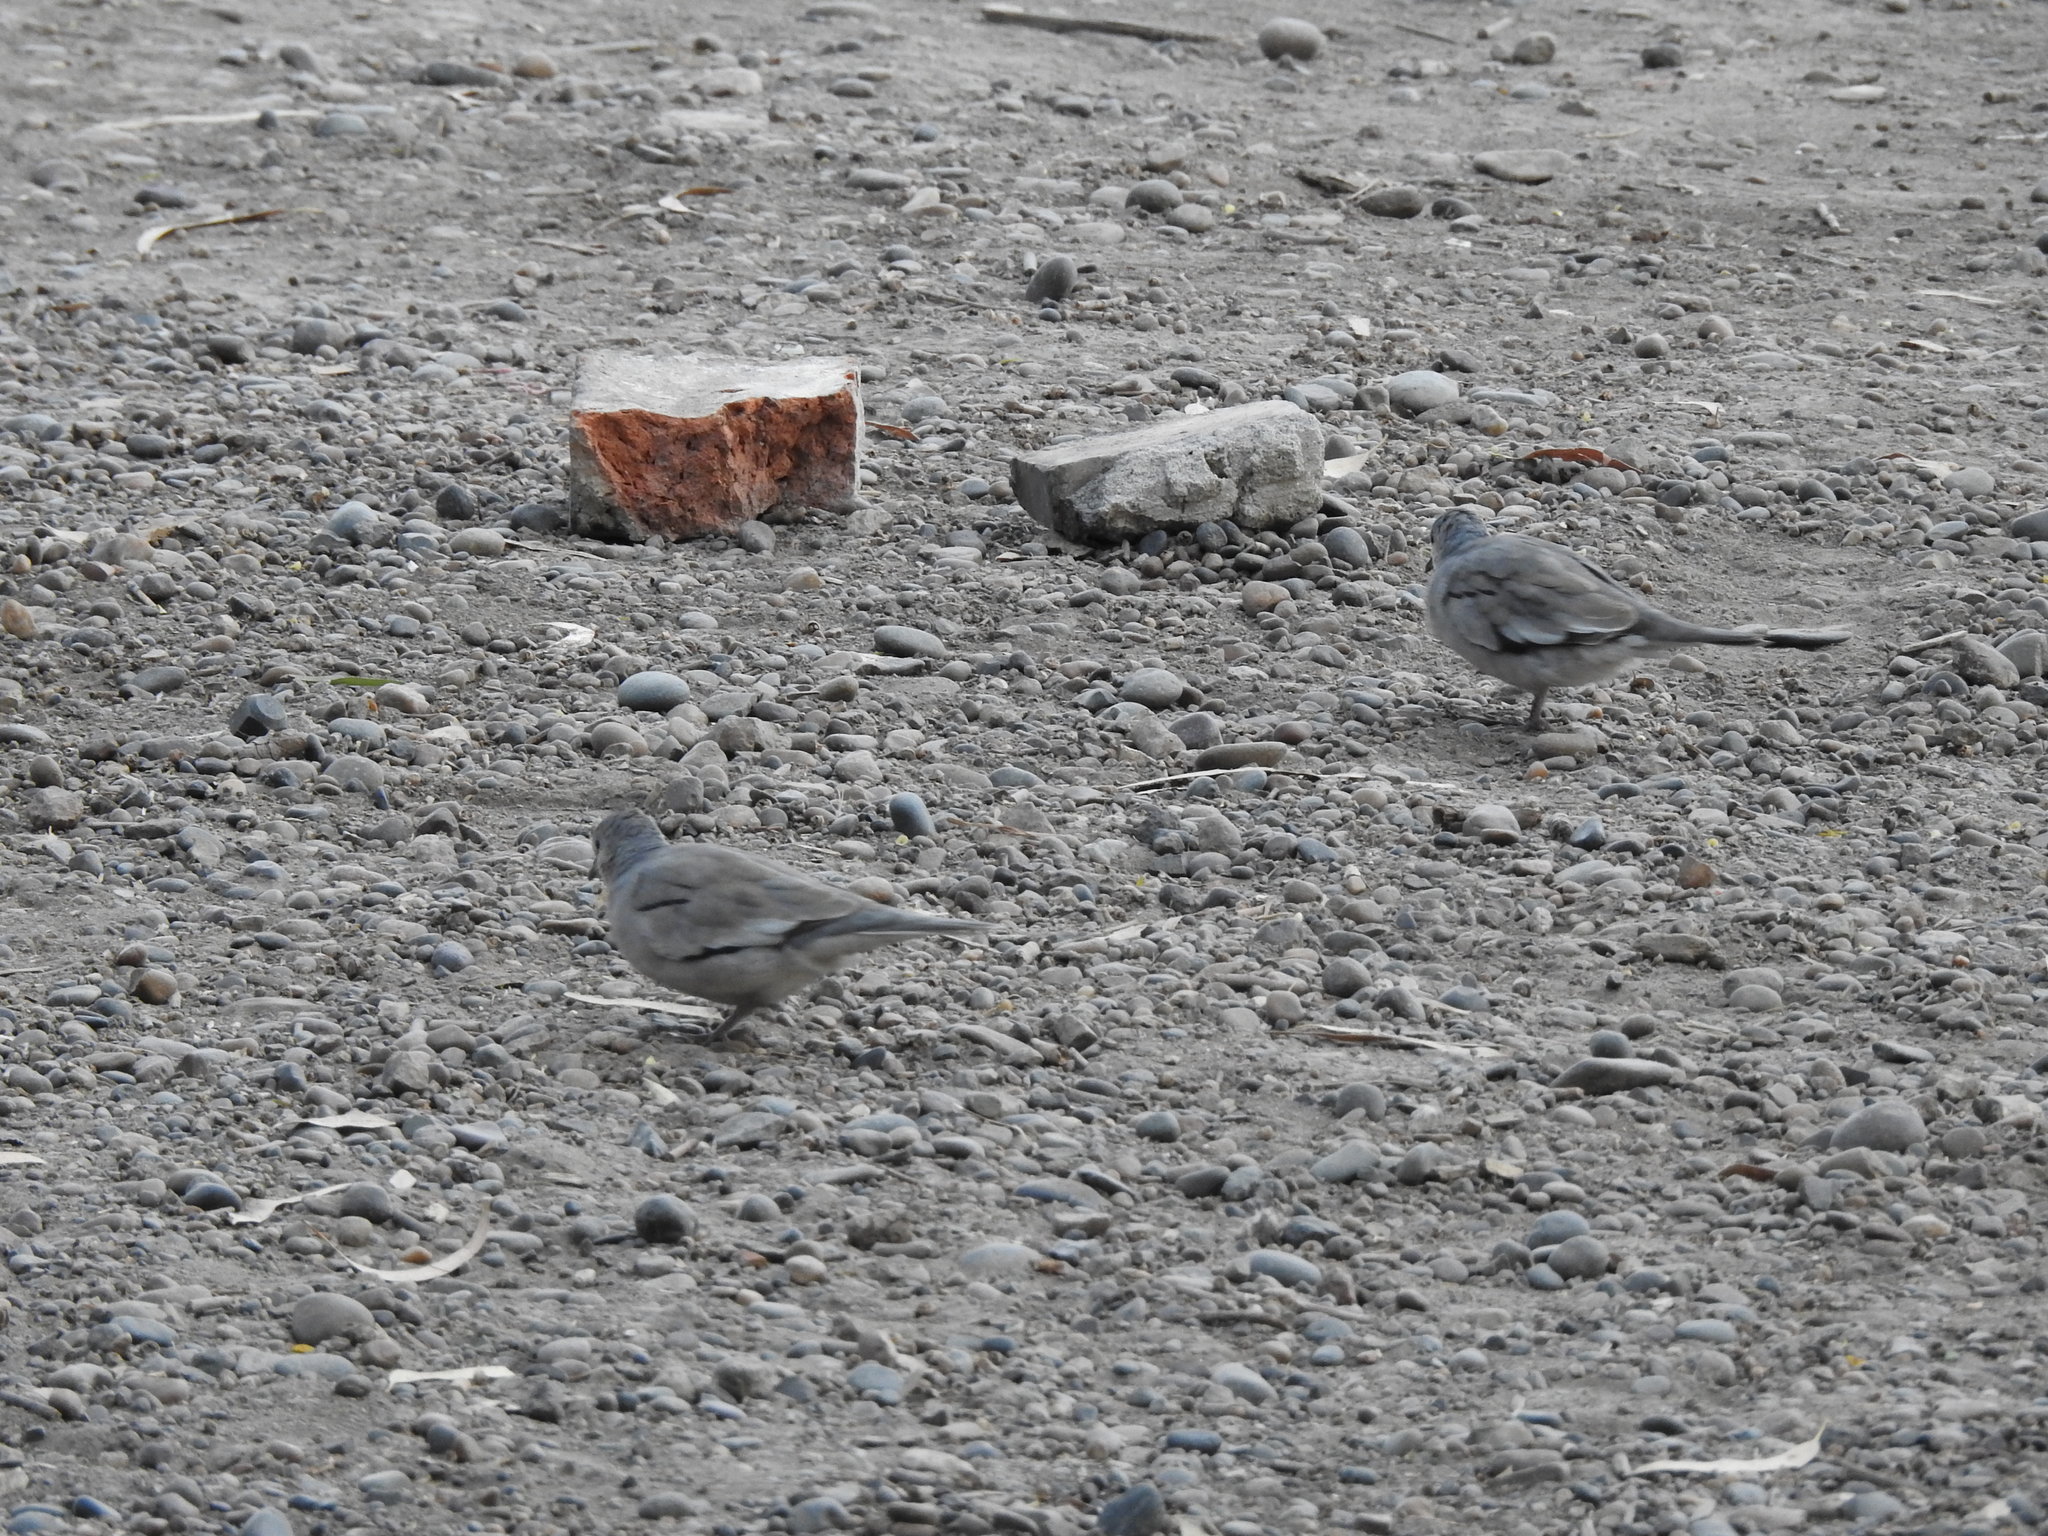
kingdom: Animalia
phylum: Chordata
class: Aves
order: Columbiformes
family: Columbidae
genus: Columbina
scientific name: Columbina picui
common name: Picui ground dove
